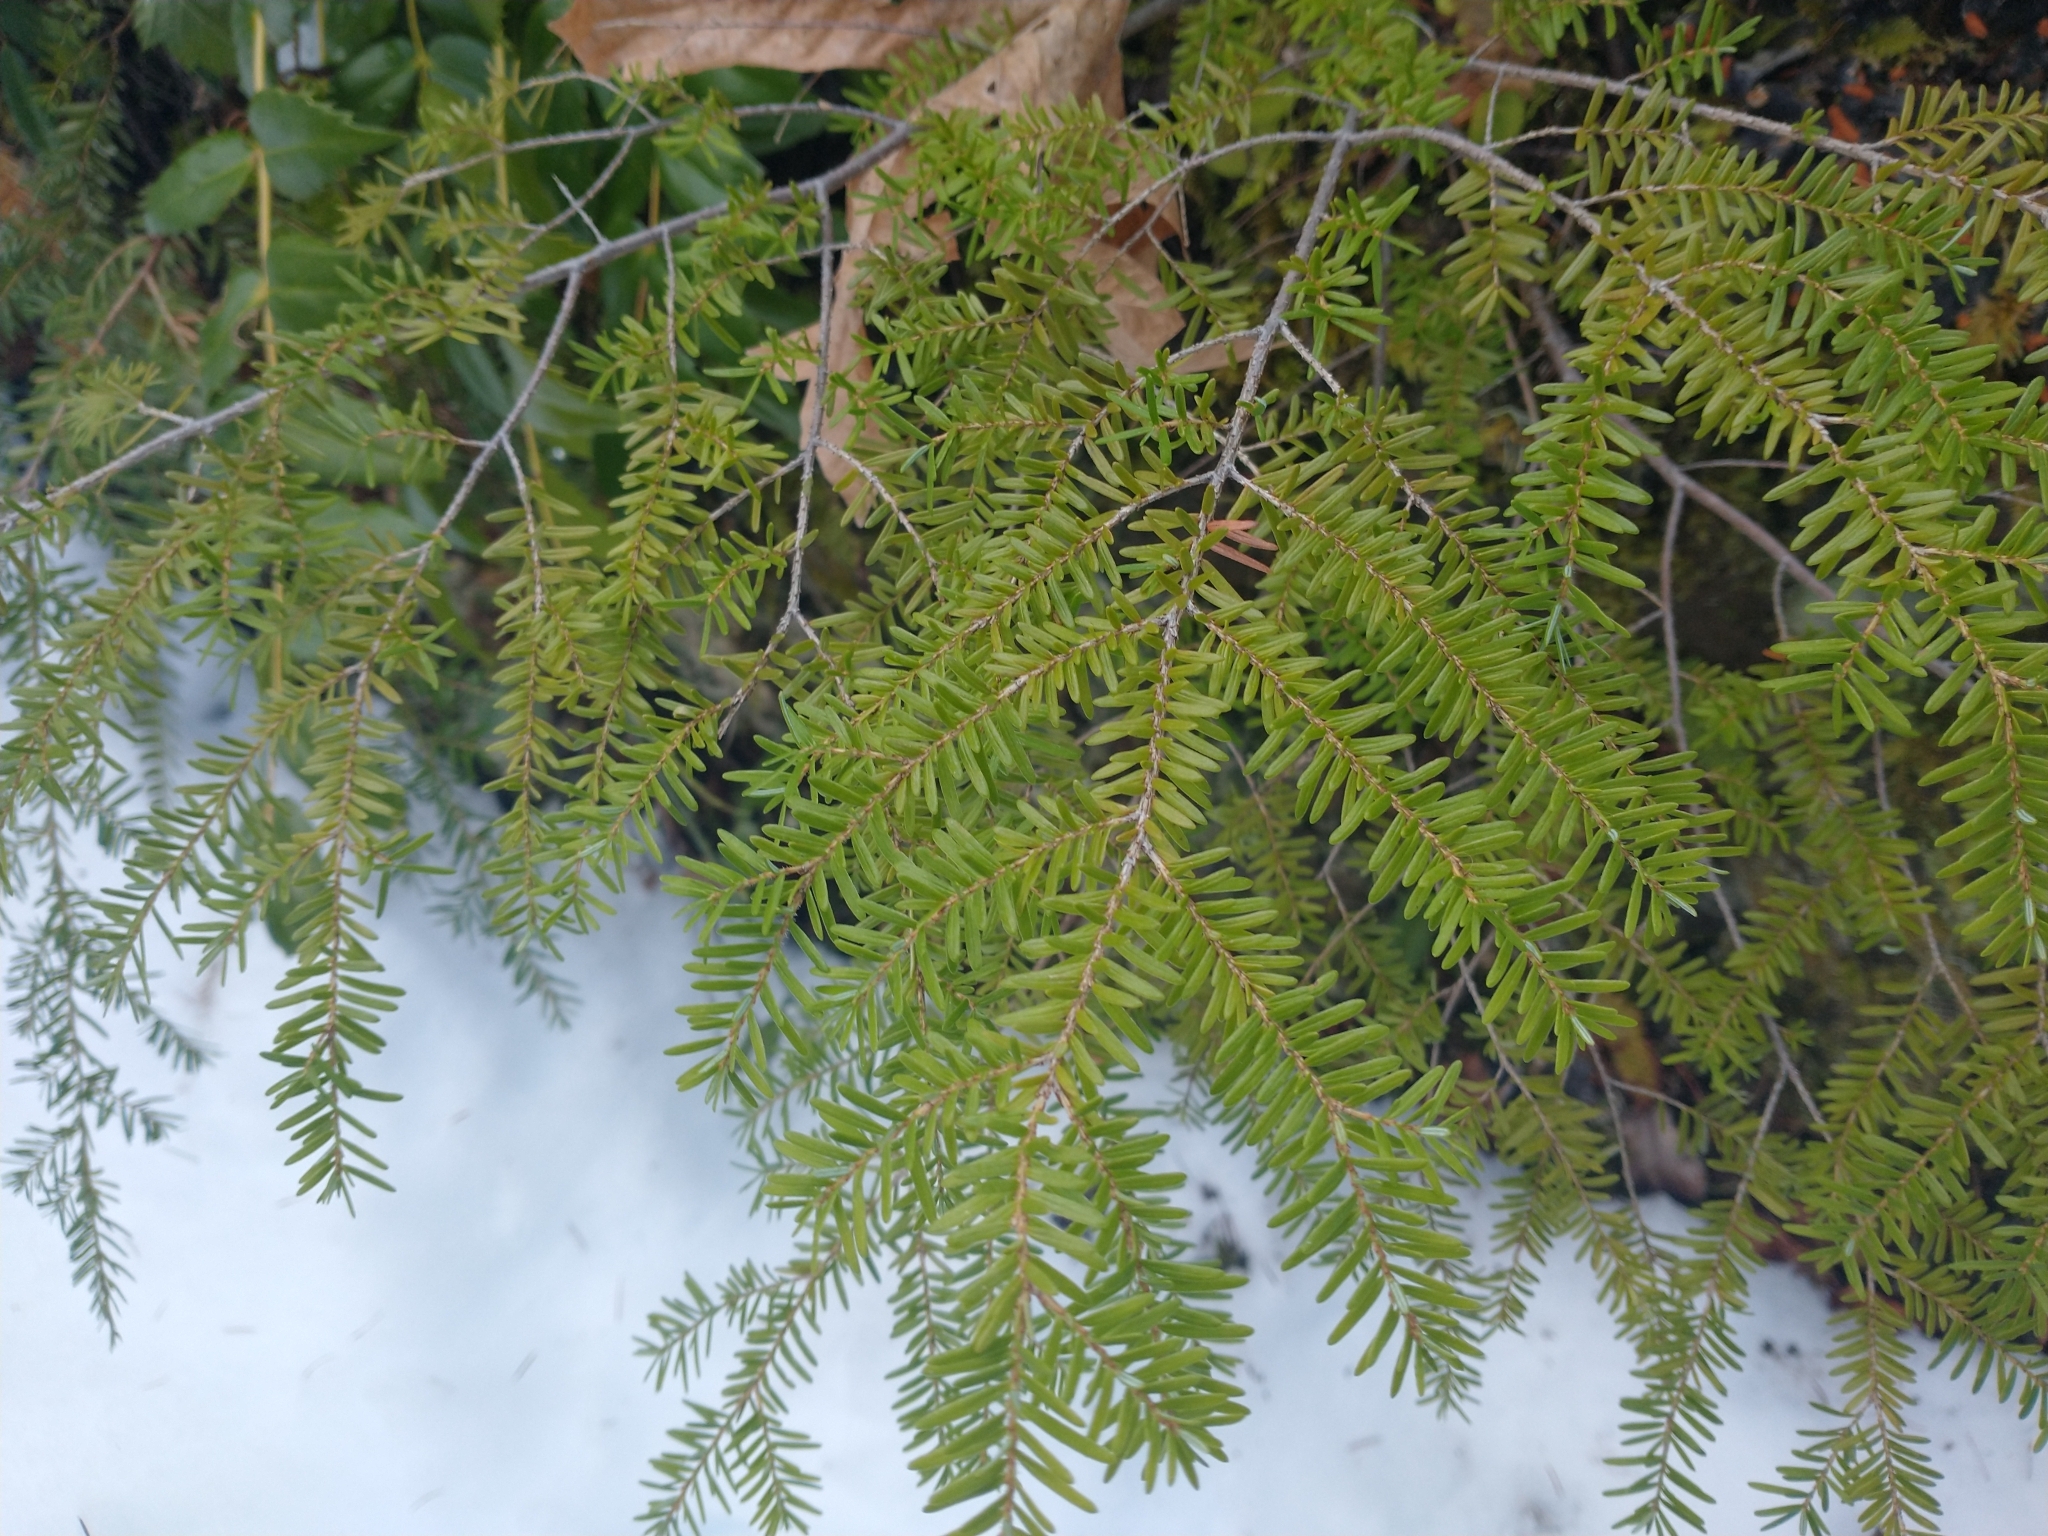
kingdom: Plantae
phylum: Tracheophyta
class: Pinopsida
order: Pinales
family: Pinaceae
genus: Tsuga
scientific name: Tsuga heterophylla
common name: Western hemlock
